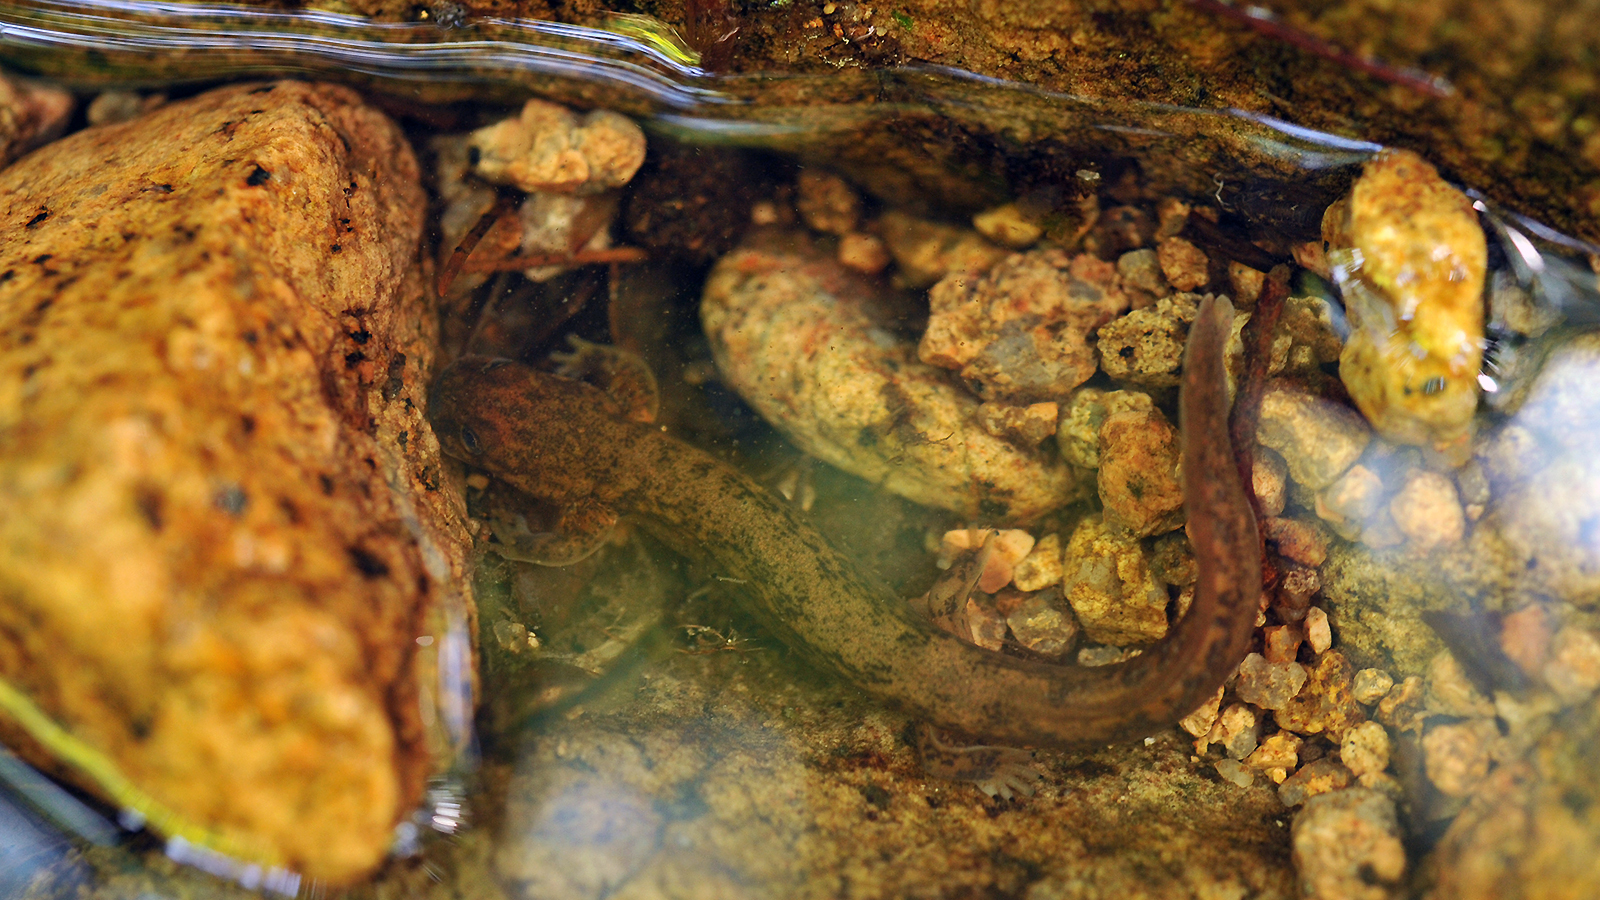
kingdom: Animalia
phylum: Chordata
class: Amphibia
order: Caudata
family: Hynobiidae
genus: Onychodactylus
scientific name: Onychodactylus koreanus
